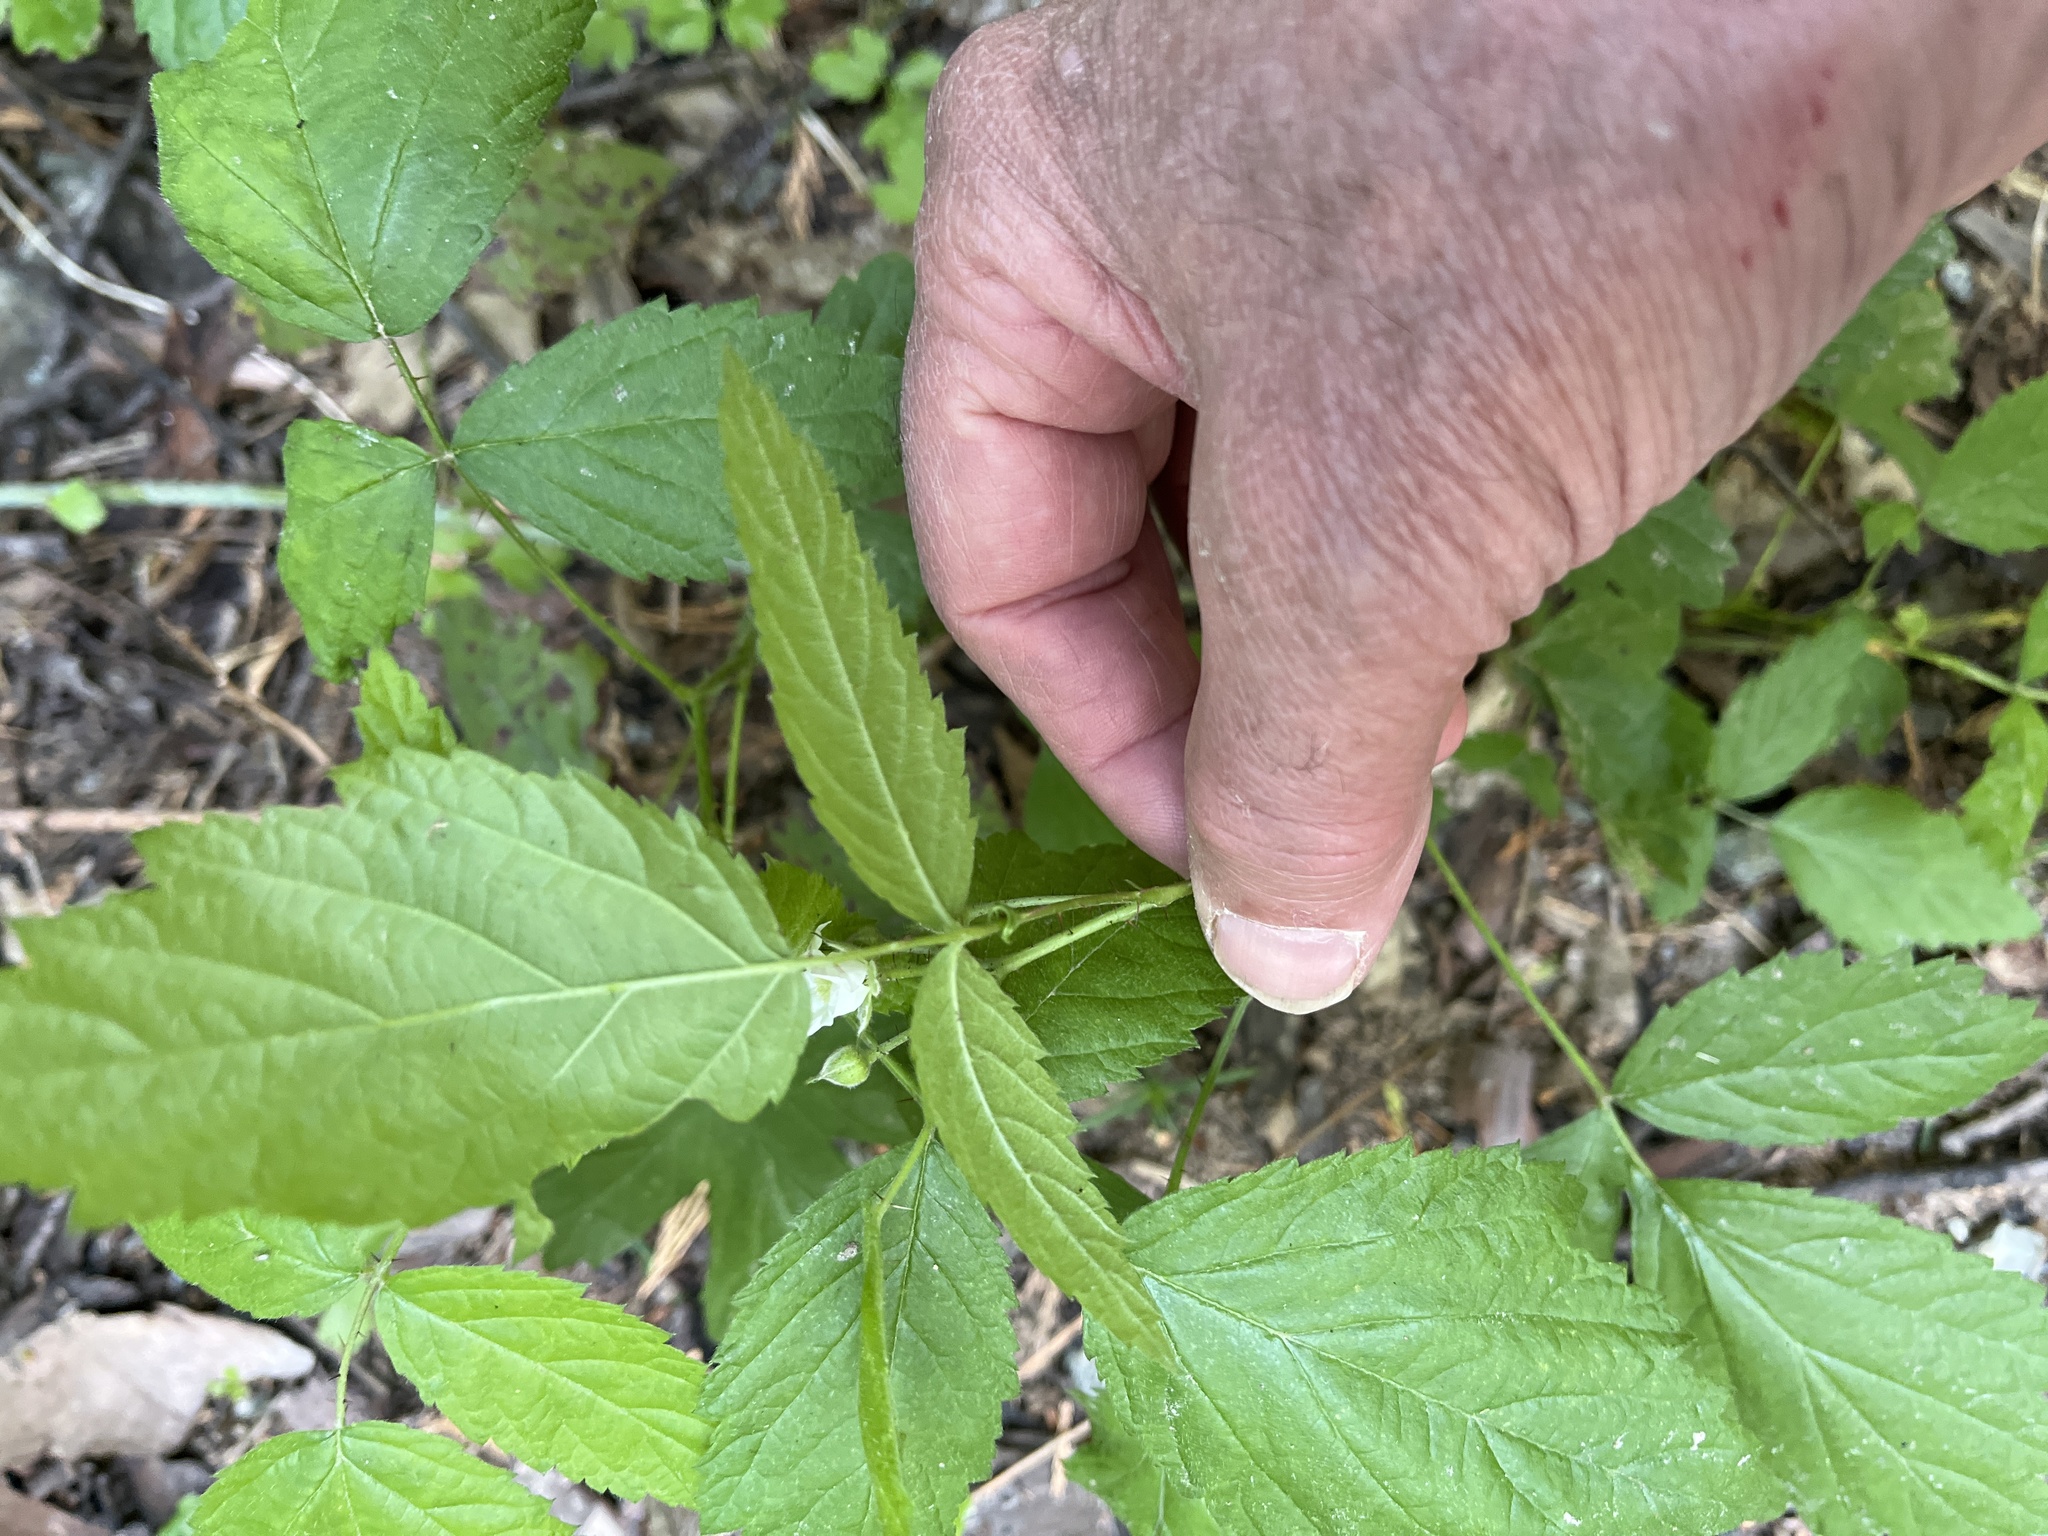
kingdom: Plantae
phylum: Tracheophyta
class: Magnoliopsida
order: Rosales
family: Rosaceae
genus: Rubus
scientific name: Rubus ursinus
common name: Pacific blackberry
